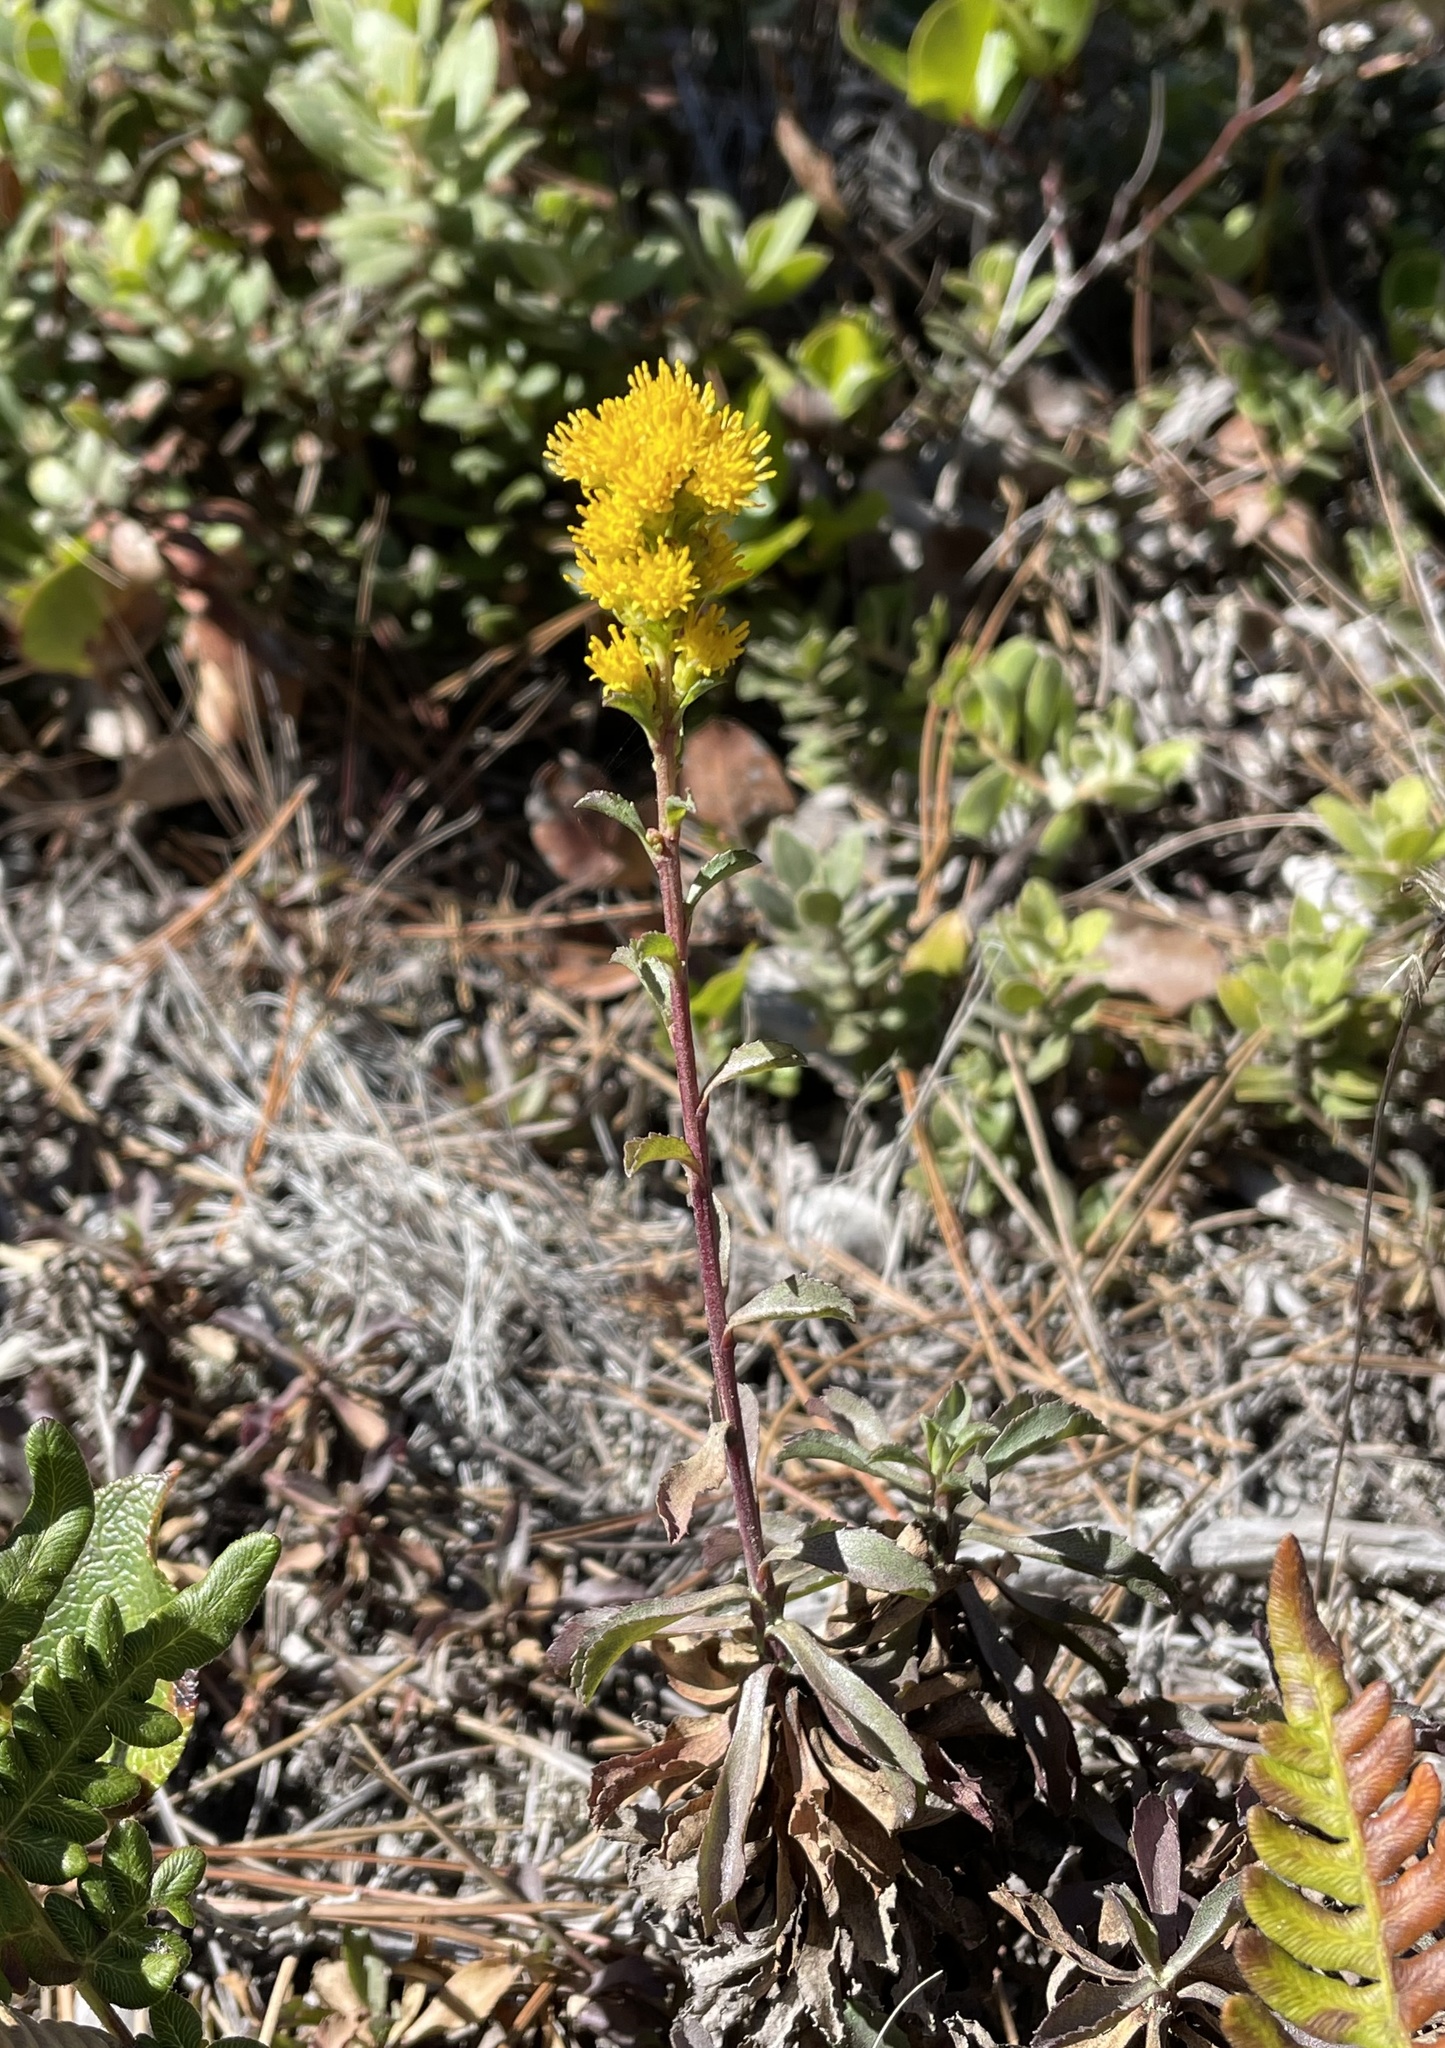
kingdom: Plantae
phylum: Tracheophyta
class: Magnoliopsida
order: Asterales
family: Asteraceae
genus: Solidago
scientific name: Solidago spathulata
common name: Coast goldenrod
